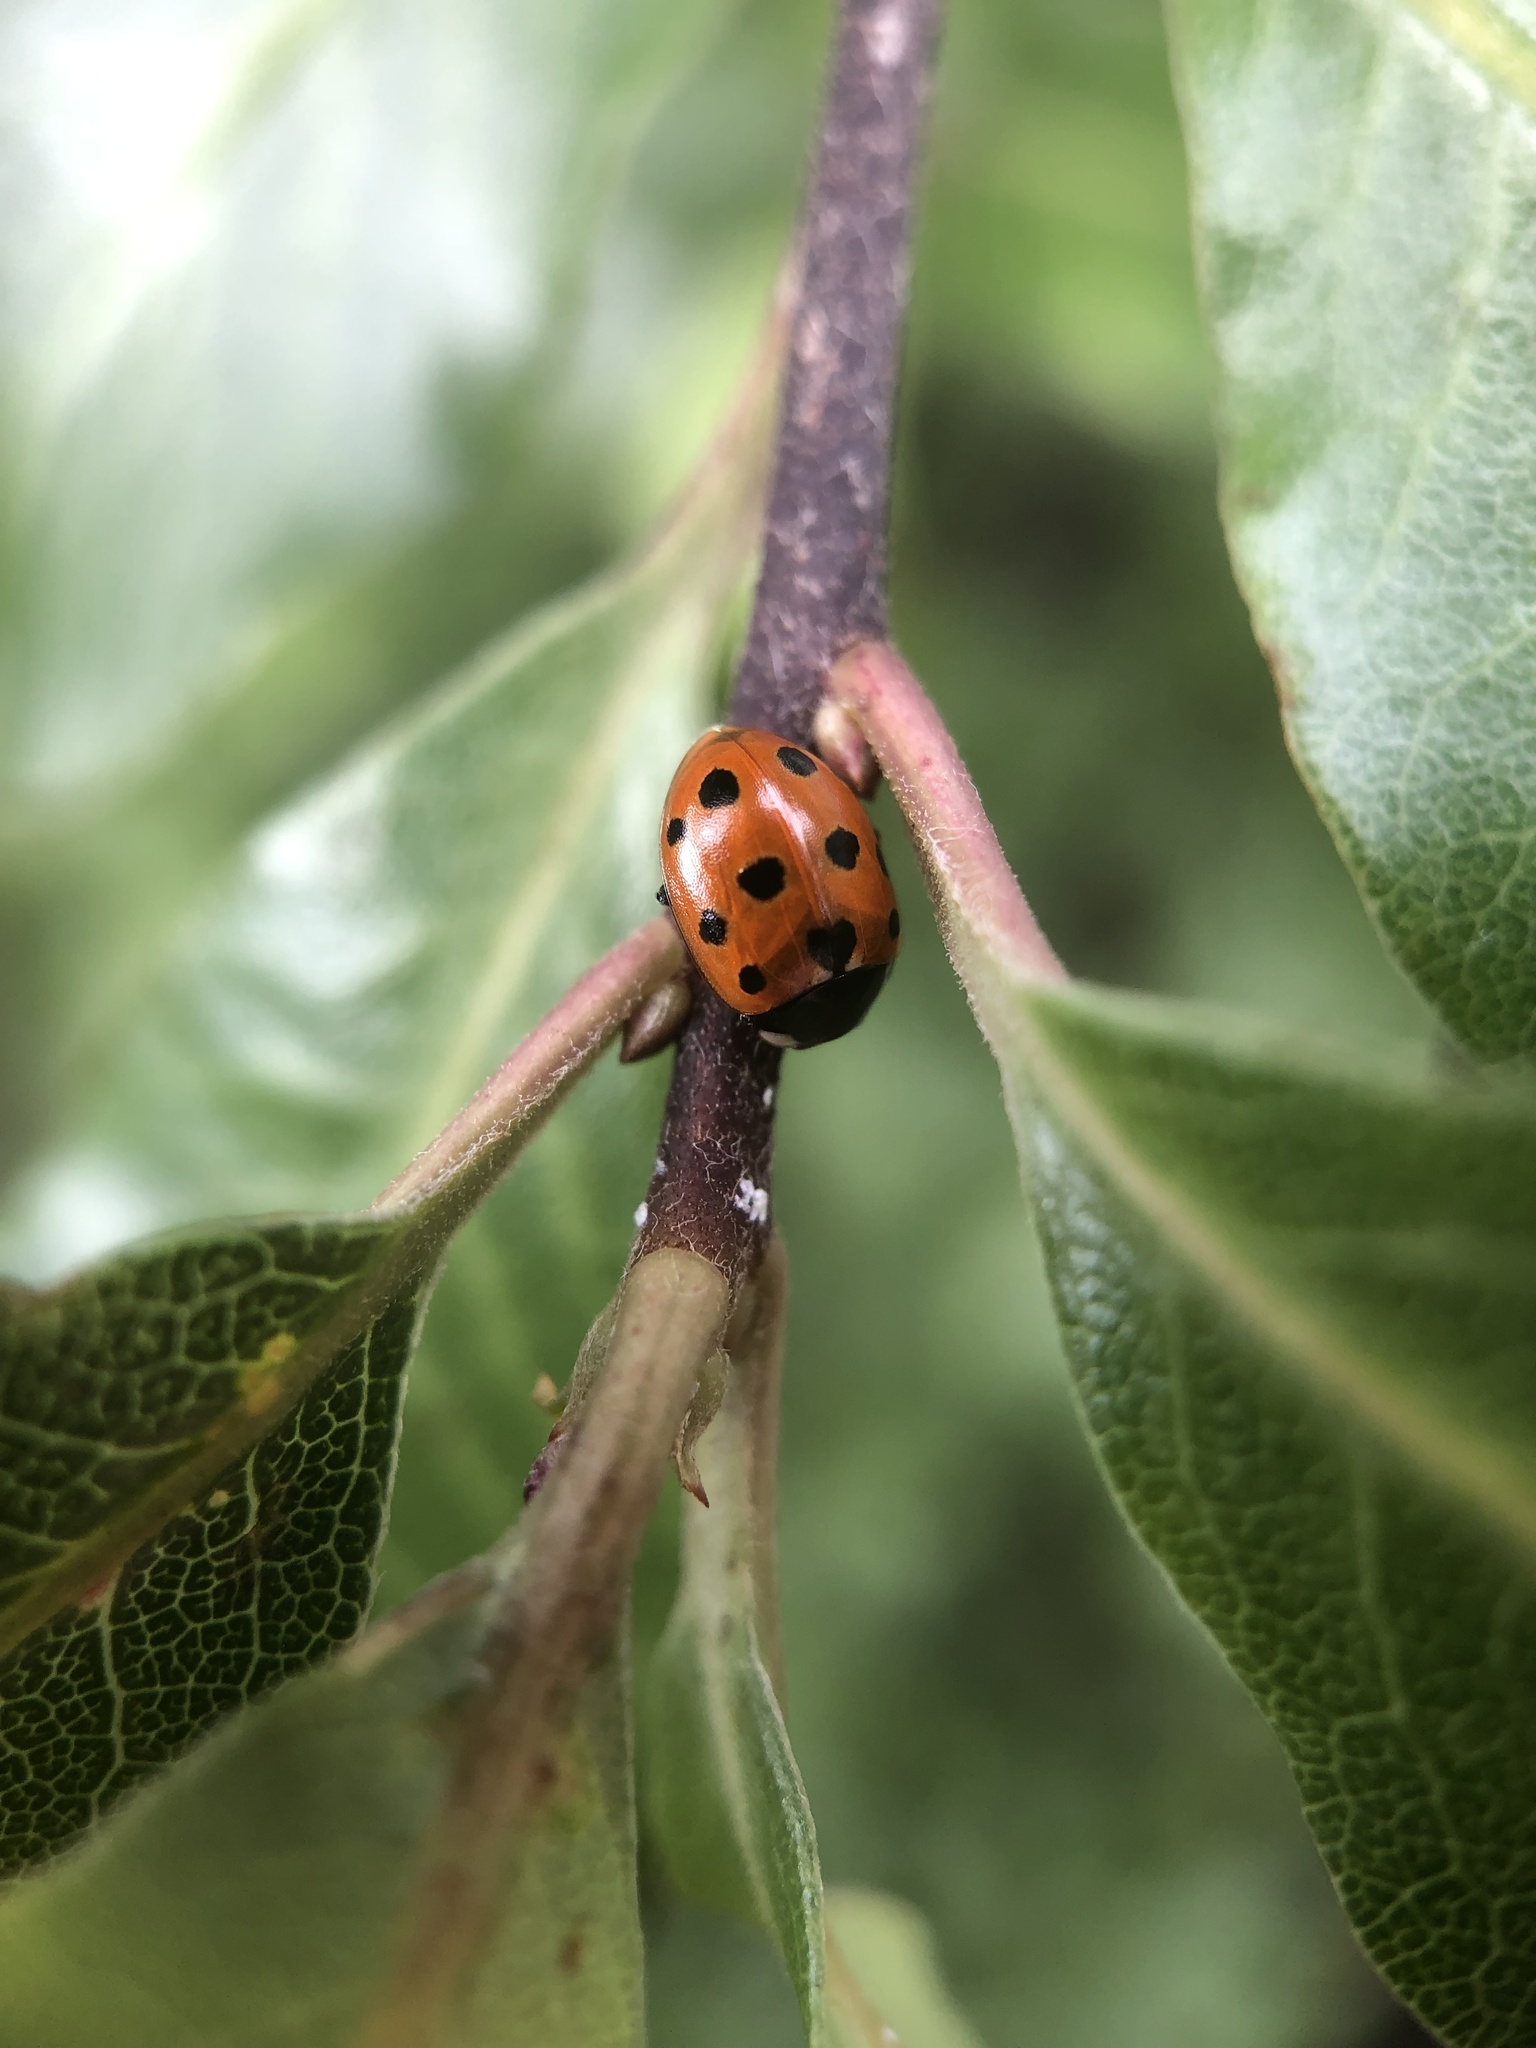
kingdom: Animalia
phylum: Arthropoda
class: Insecta
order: Coleoptera
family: Coccinellidae
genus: Coccinella
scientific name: Coccinella undecimpunctata
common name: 11-spot ladybird
